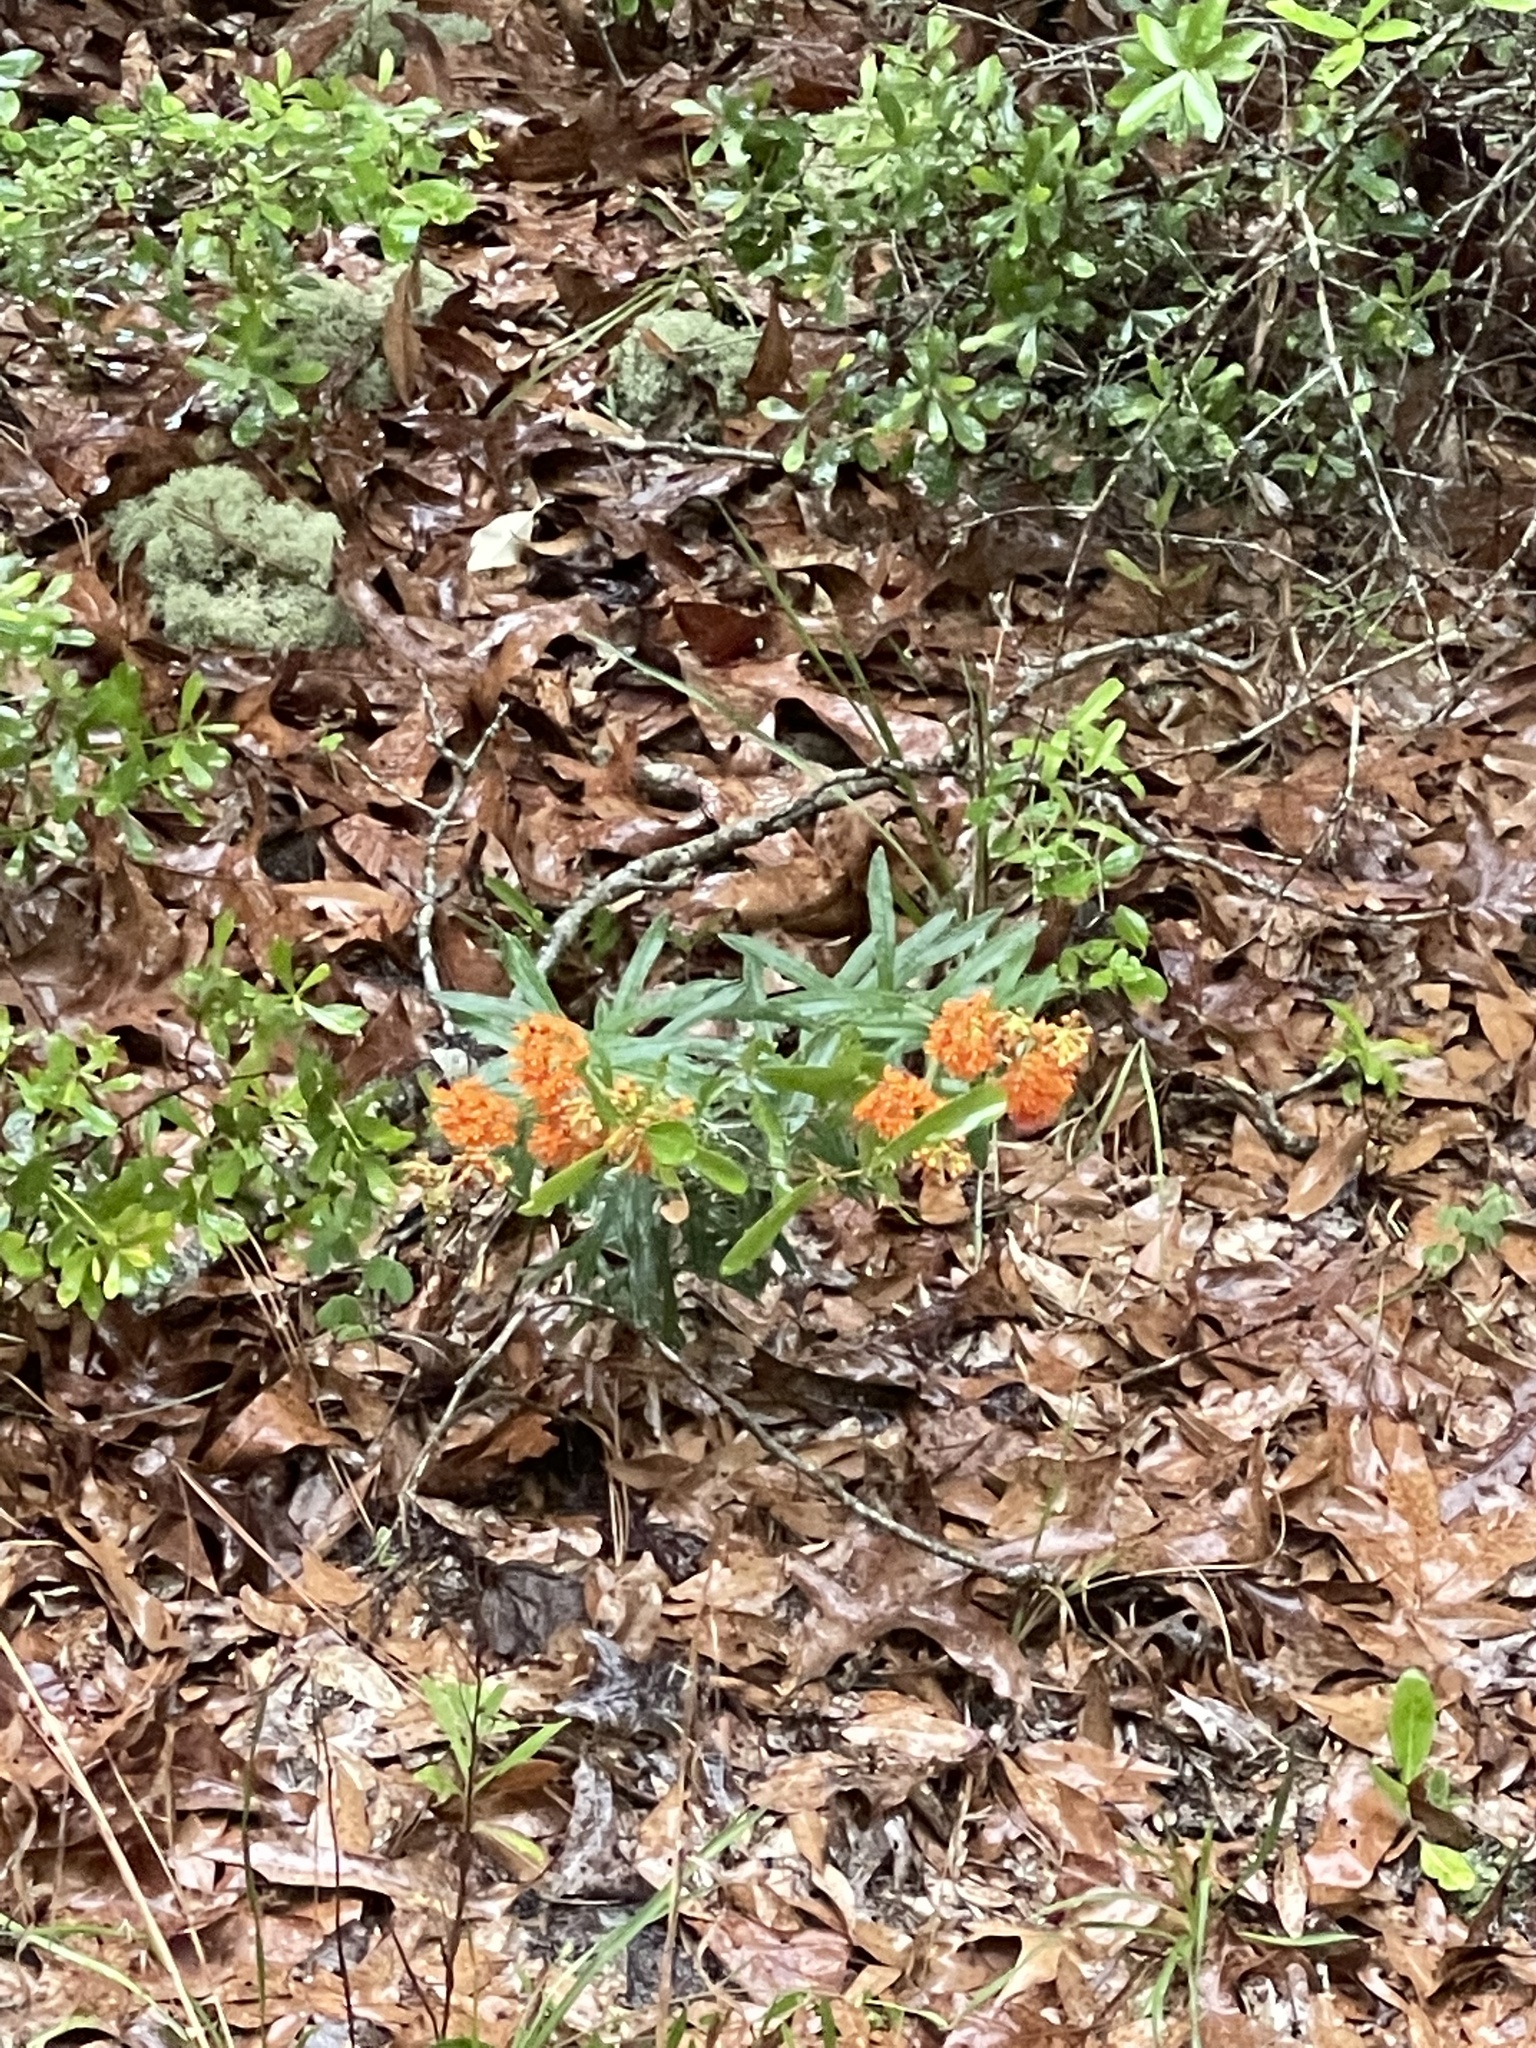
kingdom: Plantae
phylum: Tracheophyta
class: Magnoliopsida
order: Gentianales
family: Apocynaceae
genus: Asclepias
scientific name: Asclepias tuberosa
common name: Butterfly milkweed
